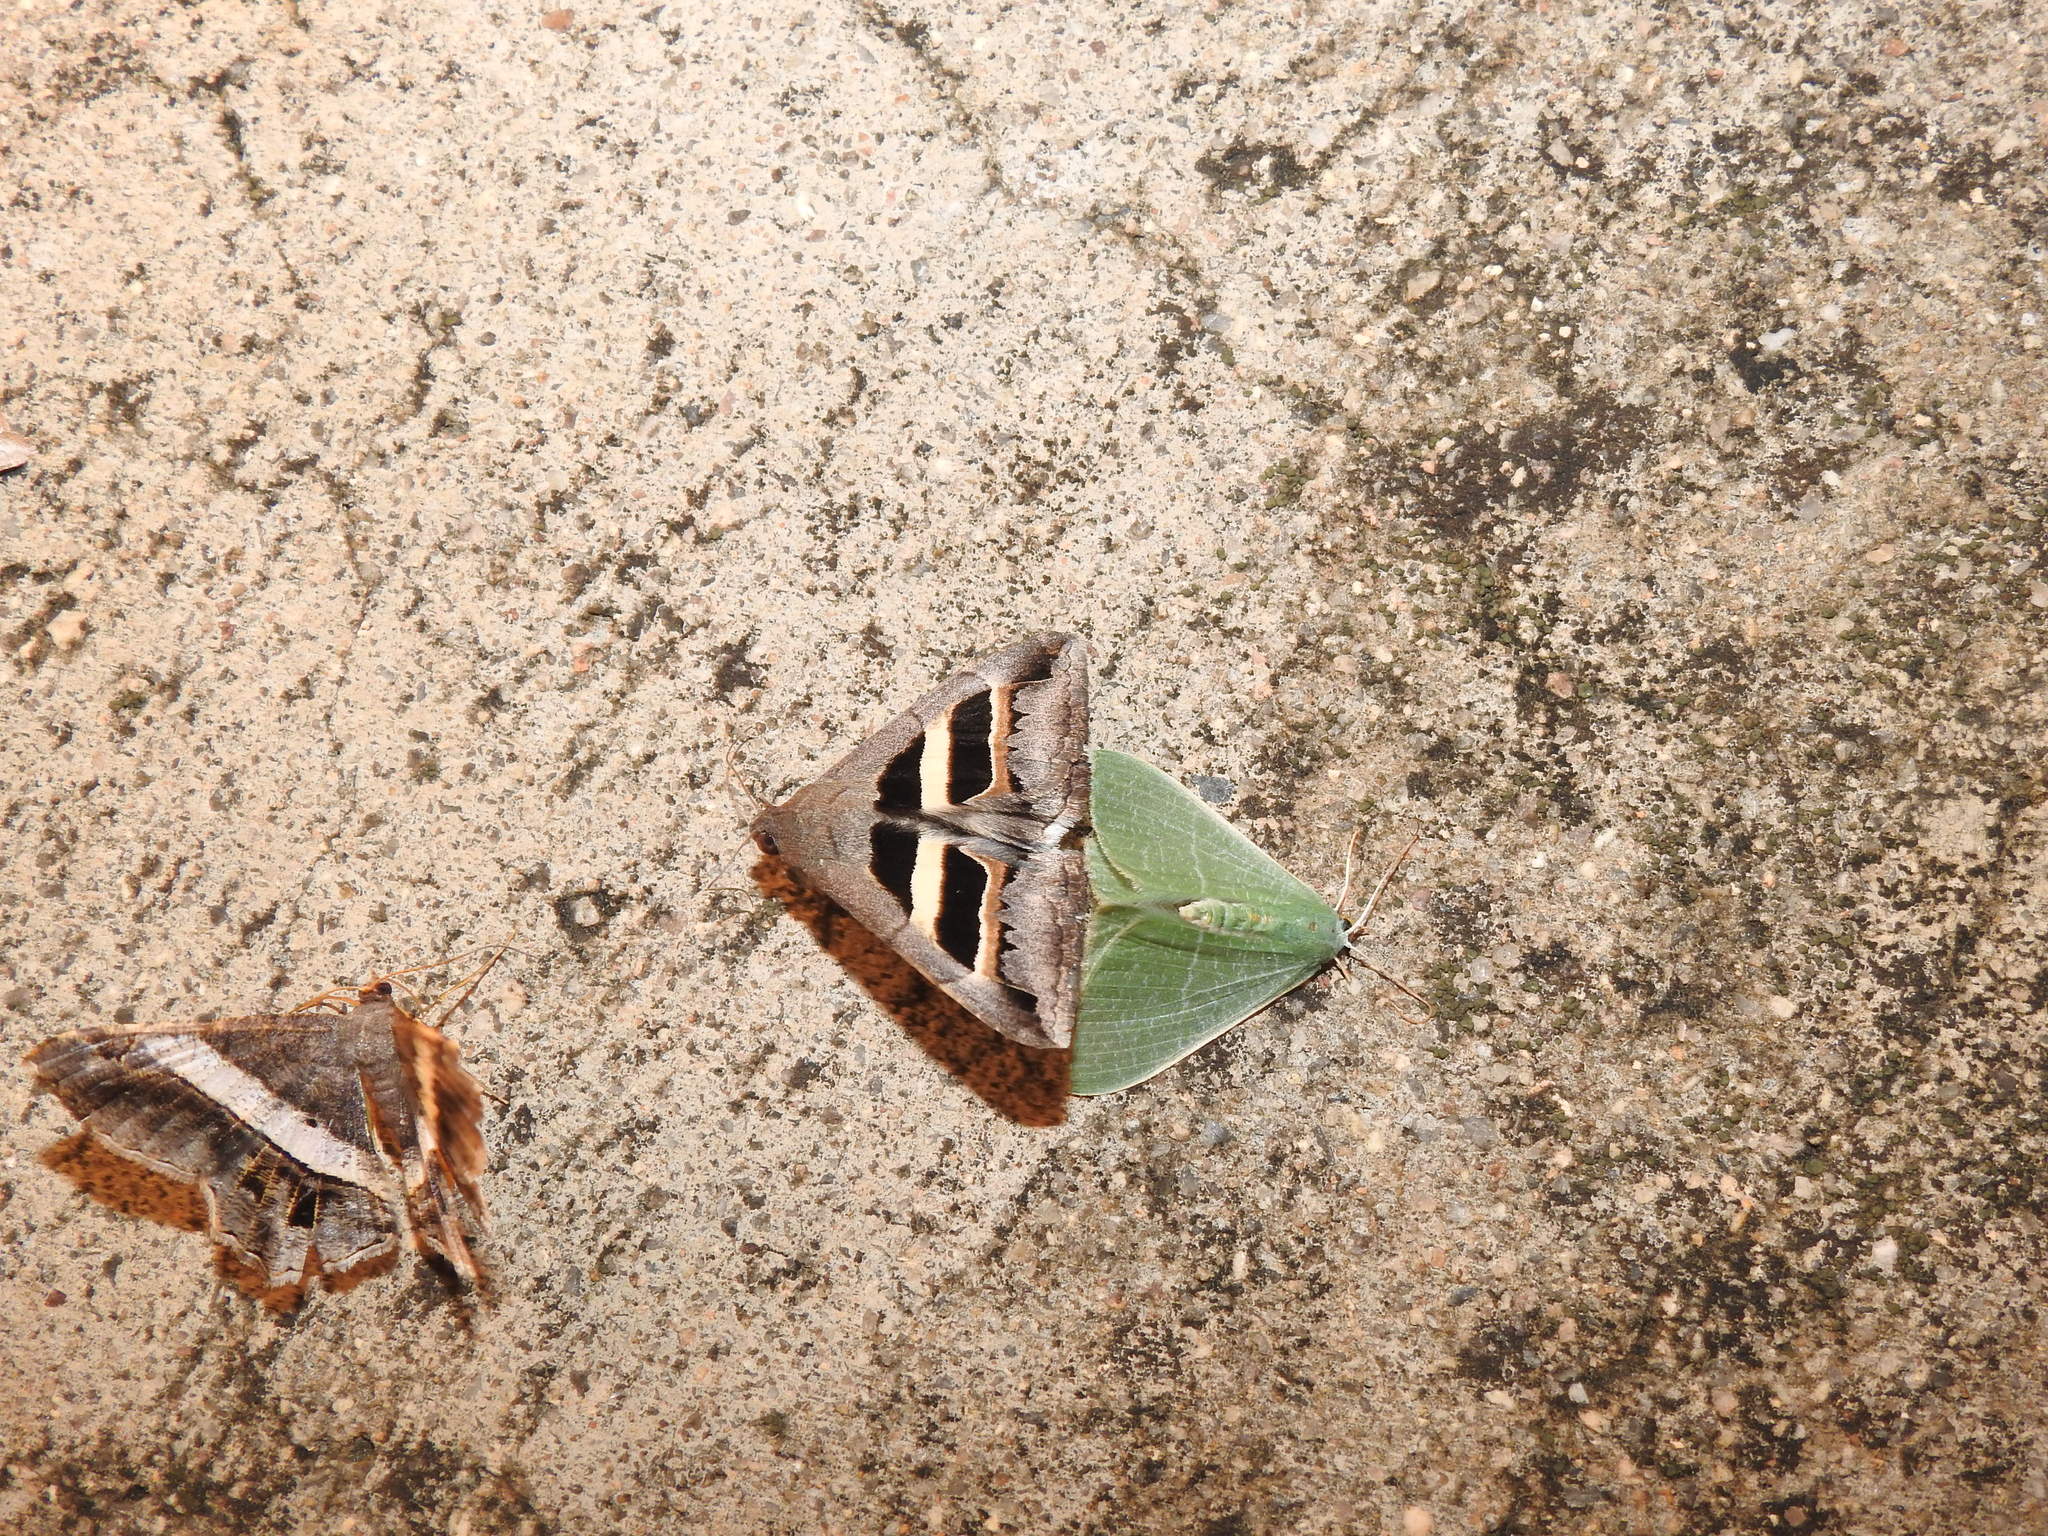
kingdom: Animalia
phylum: Arthropoda
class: Insecta
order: Lepidoptera
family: Erebidae
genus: Grammodes
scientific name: Grammodes geometrica
